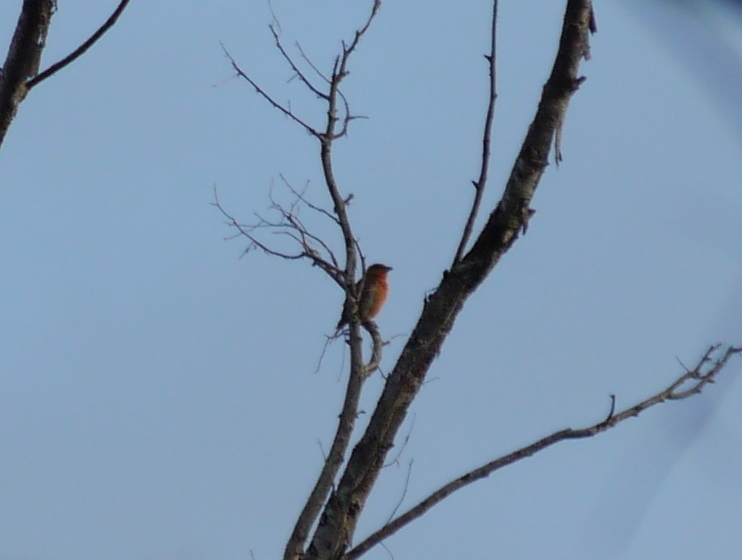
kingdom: Animalia
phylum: Chordata
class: Aves
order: Passeriformes
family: Cardinalidae
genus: Piranga
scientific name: Piranga flava
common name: Red tanager
